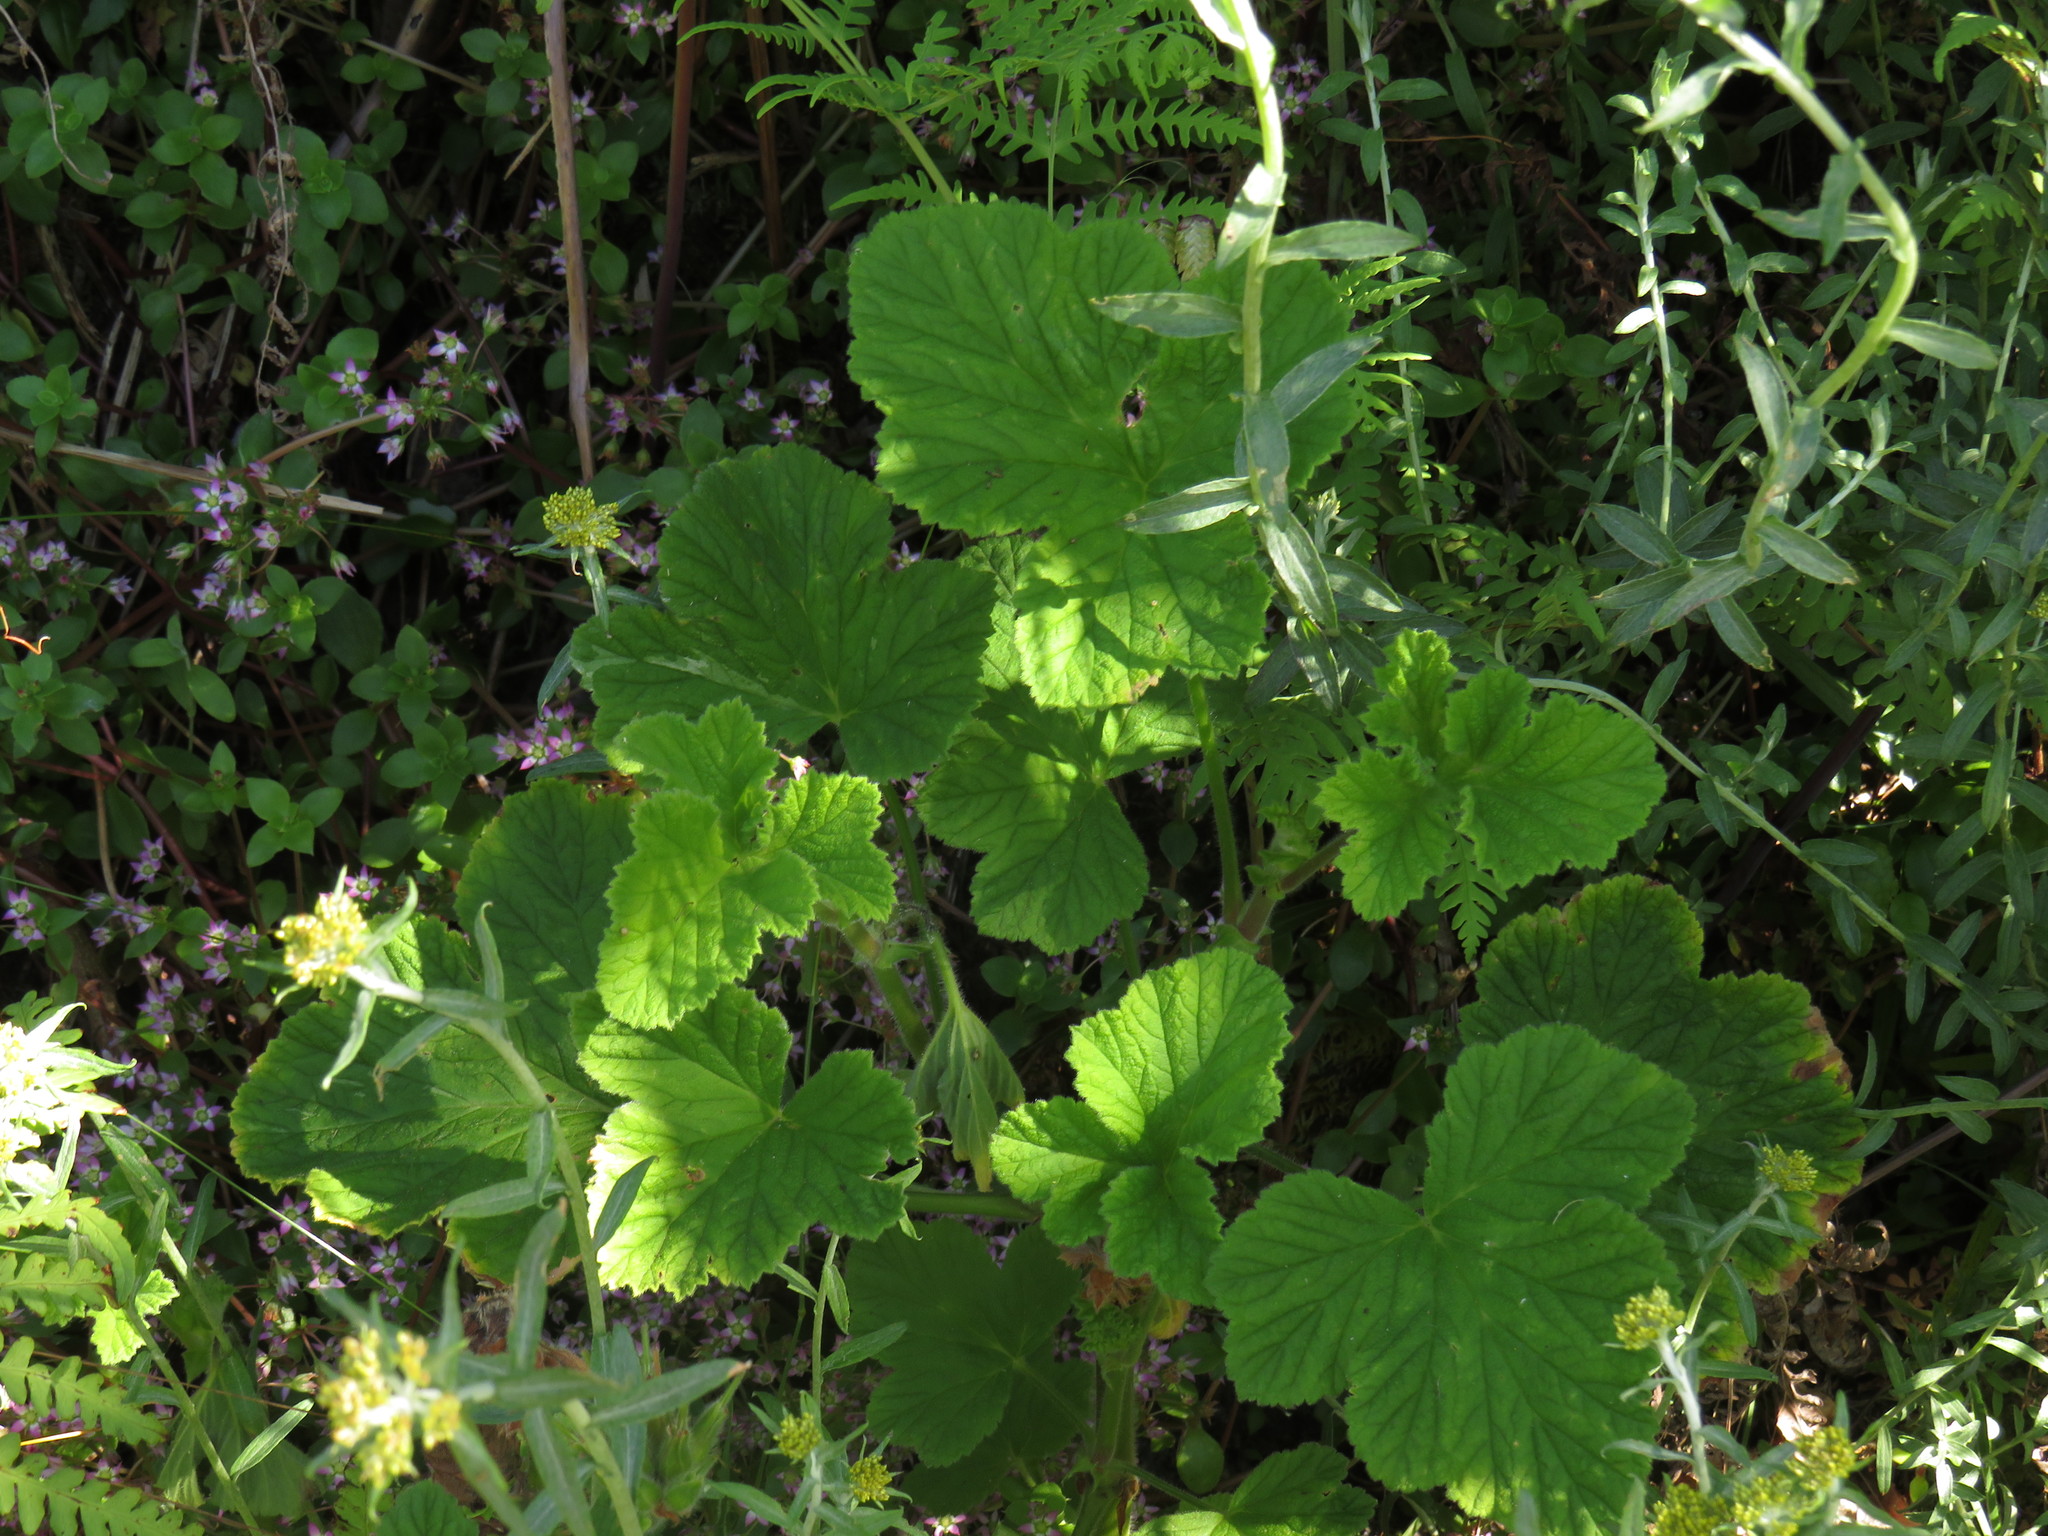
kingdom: Plantae
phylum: Tracheophyta
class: Magnoliopsida
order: Geraniales
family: Geraniaceae
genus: Pelargonium
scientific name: Pelargonium vitifolium
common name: Grapeleaf geranium
